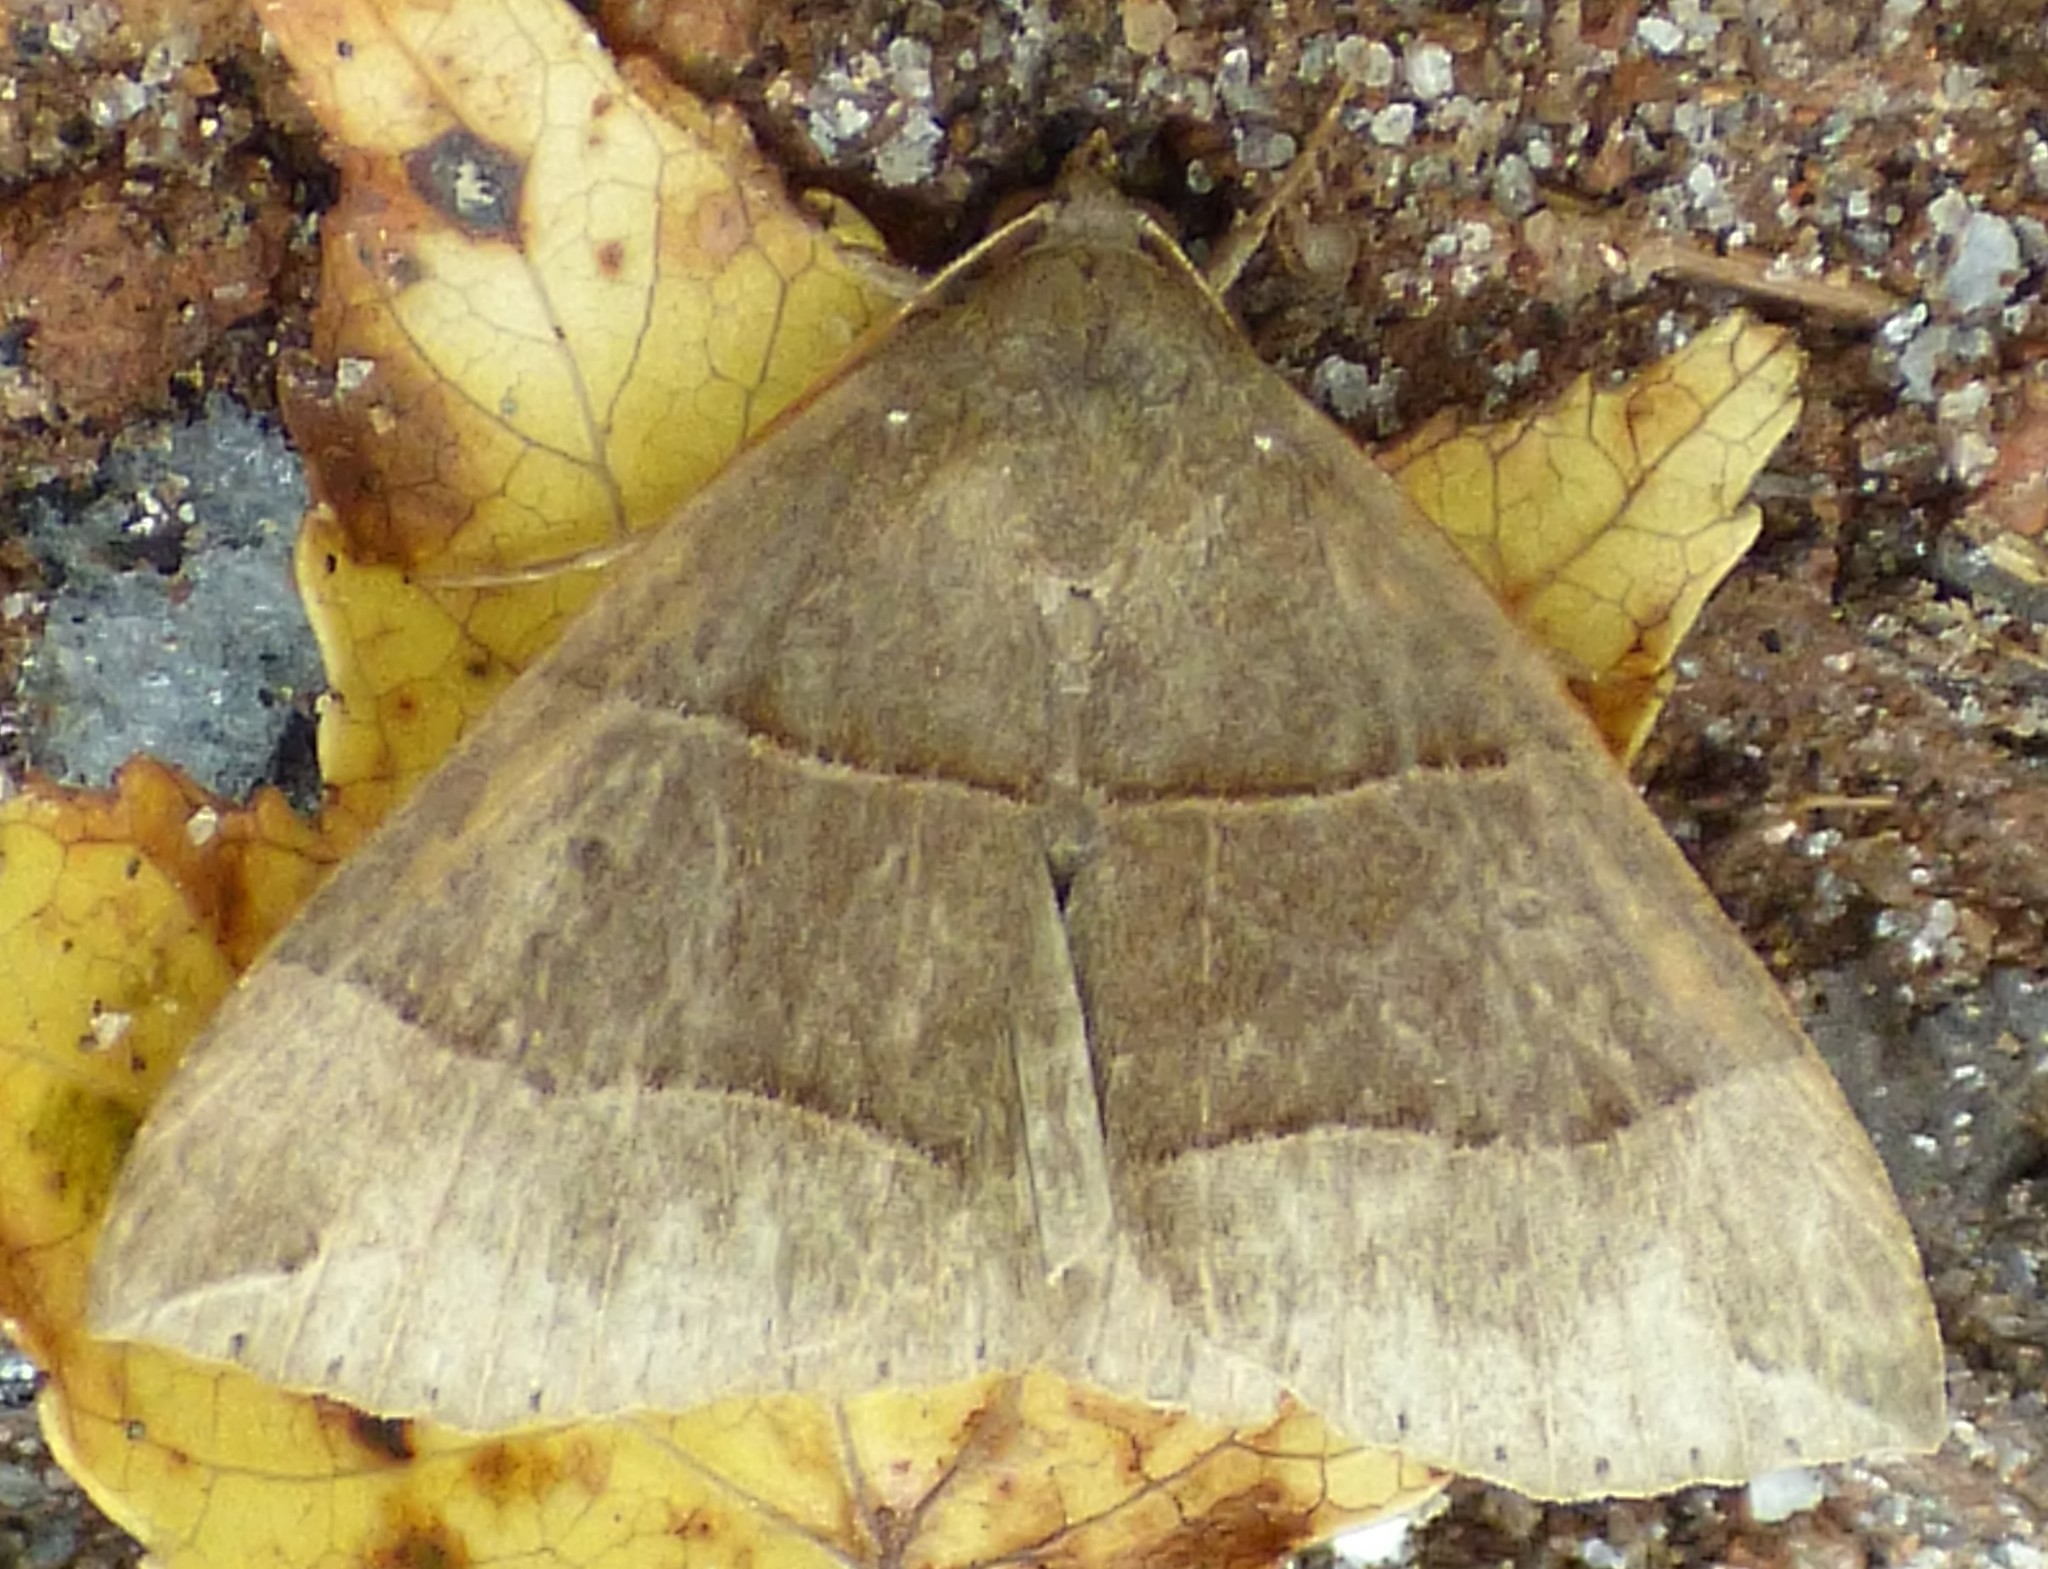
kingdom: Animalia
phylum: Arthropoda
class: Insecta
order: Lepidoptera
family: Erebidae
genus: Parallelia
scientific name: Parallelia bistriaris
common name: Maple looper moth
